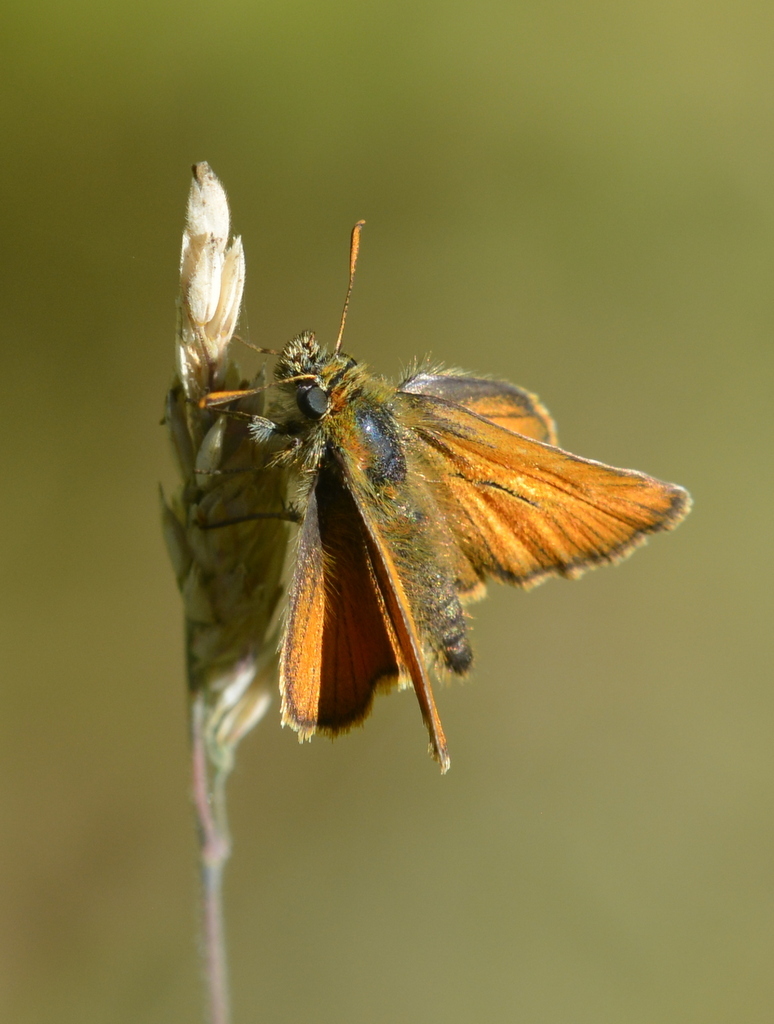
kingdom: Animalia
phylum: Arthropoda
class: Insecta
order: Lepidoptera
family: Hesperiidae
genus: Thymelicus
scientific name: Thymelicus sylvestris
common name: Small skipper
